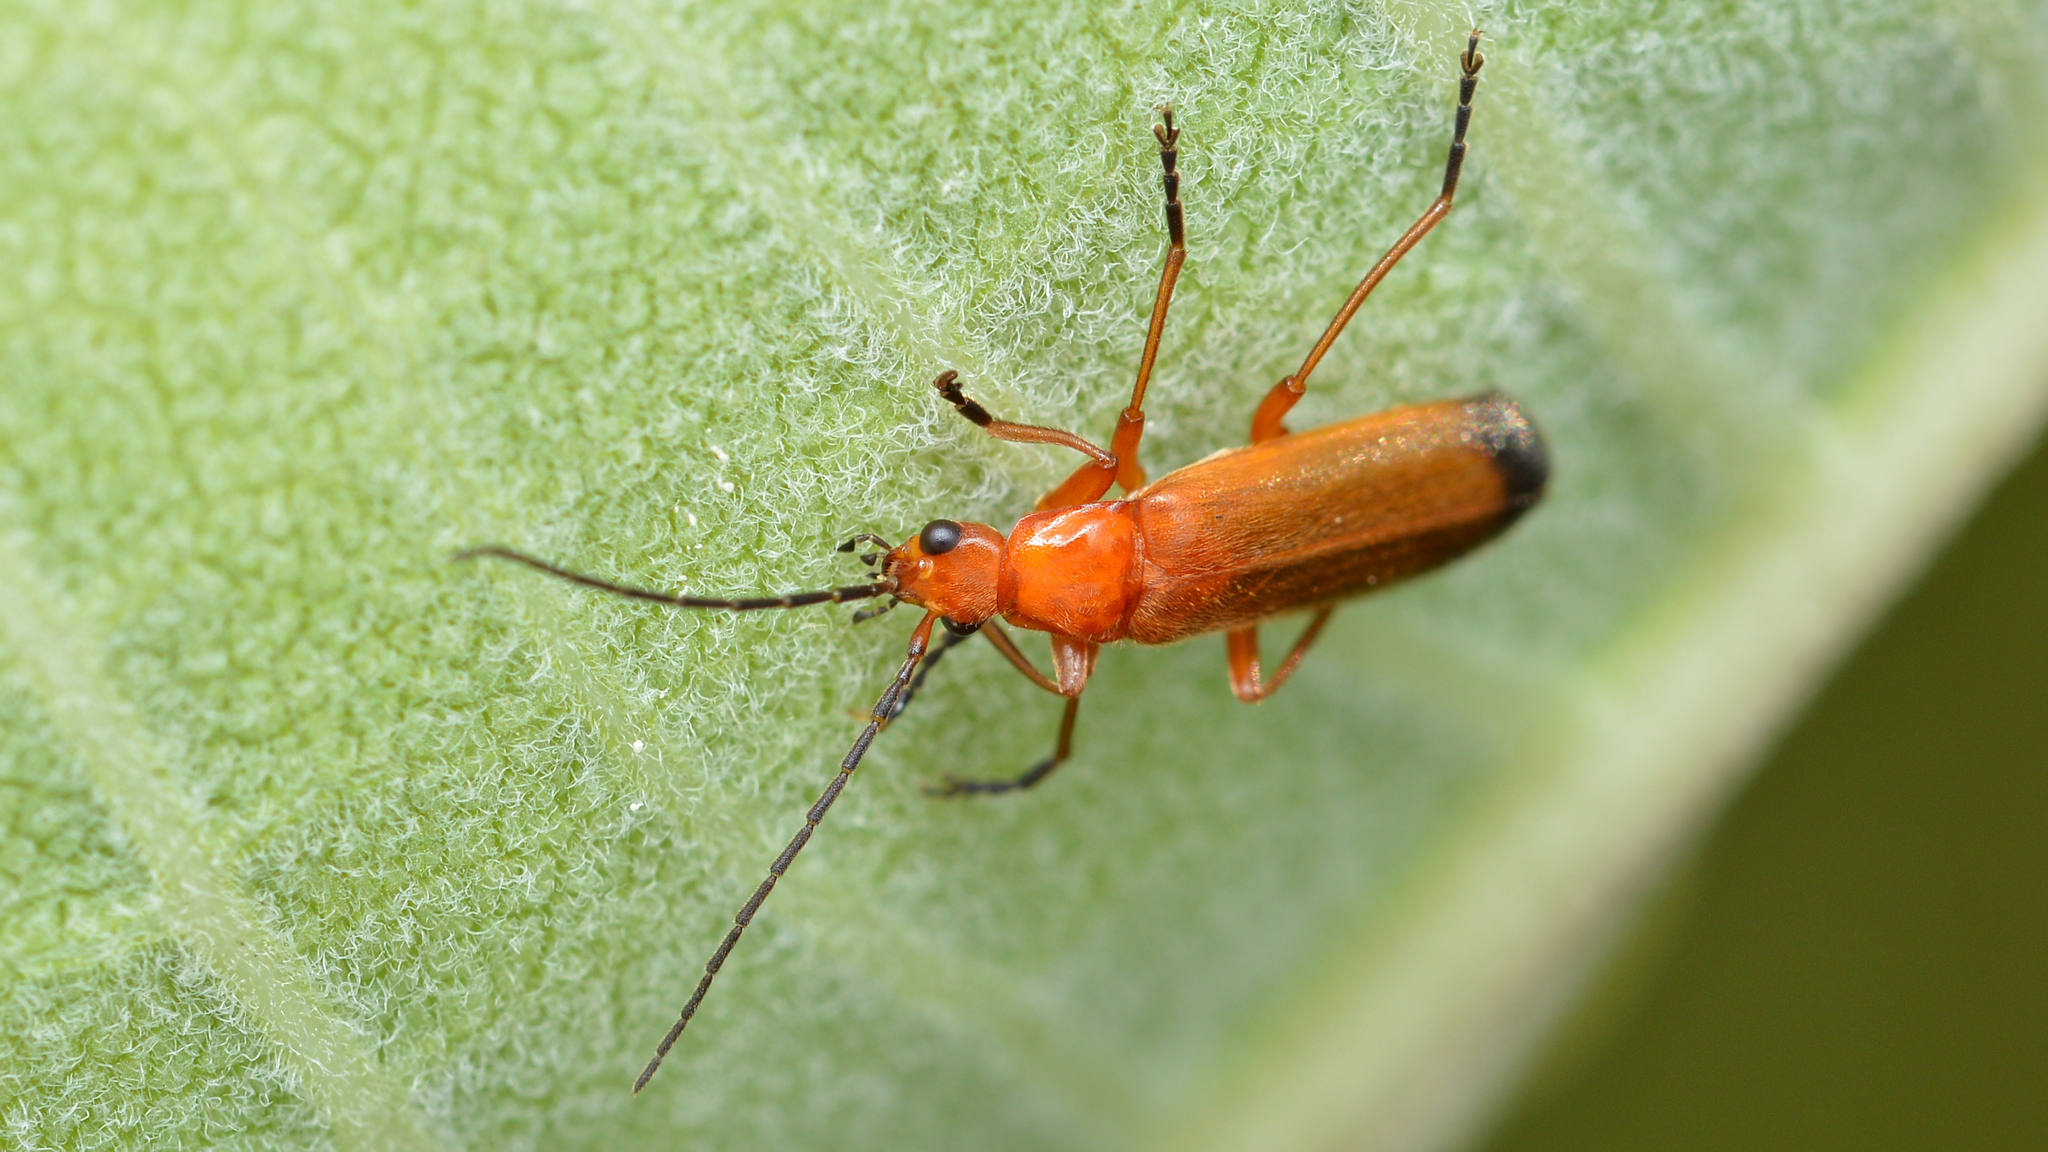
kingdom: Animalia
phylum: Arthropoda
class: Insecta
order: Coleoptera
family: Cantharidae
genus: Rhagonycha
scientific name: Rhagonycha fulva
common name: Common red soldier beetle
